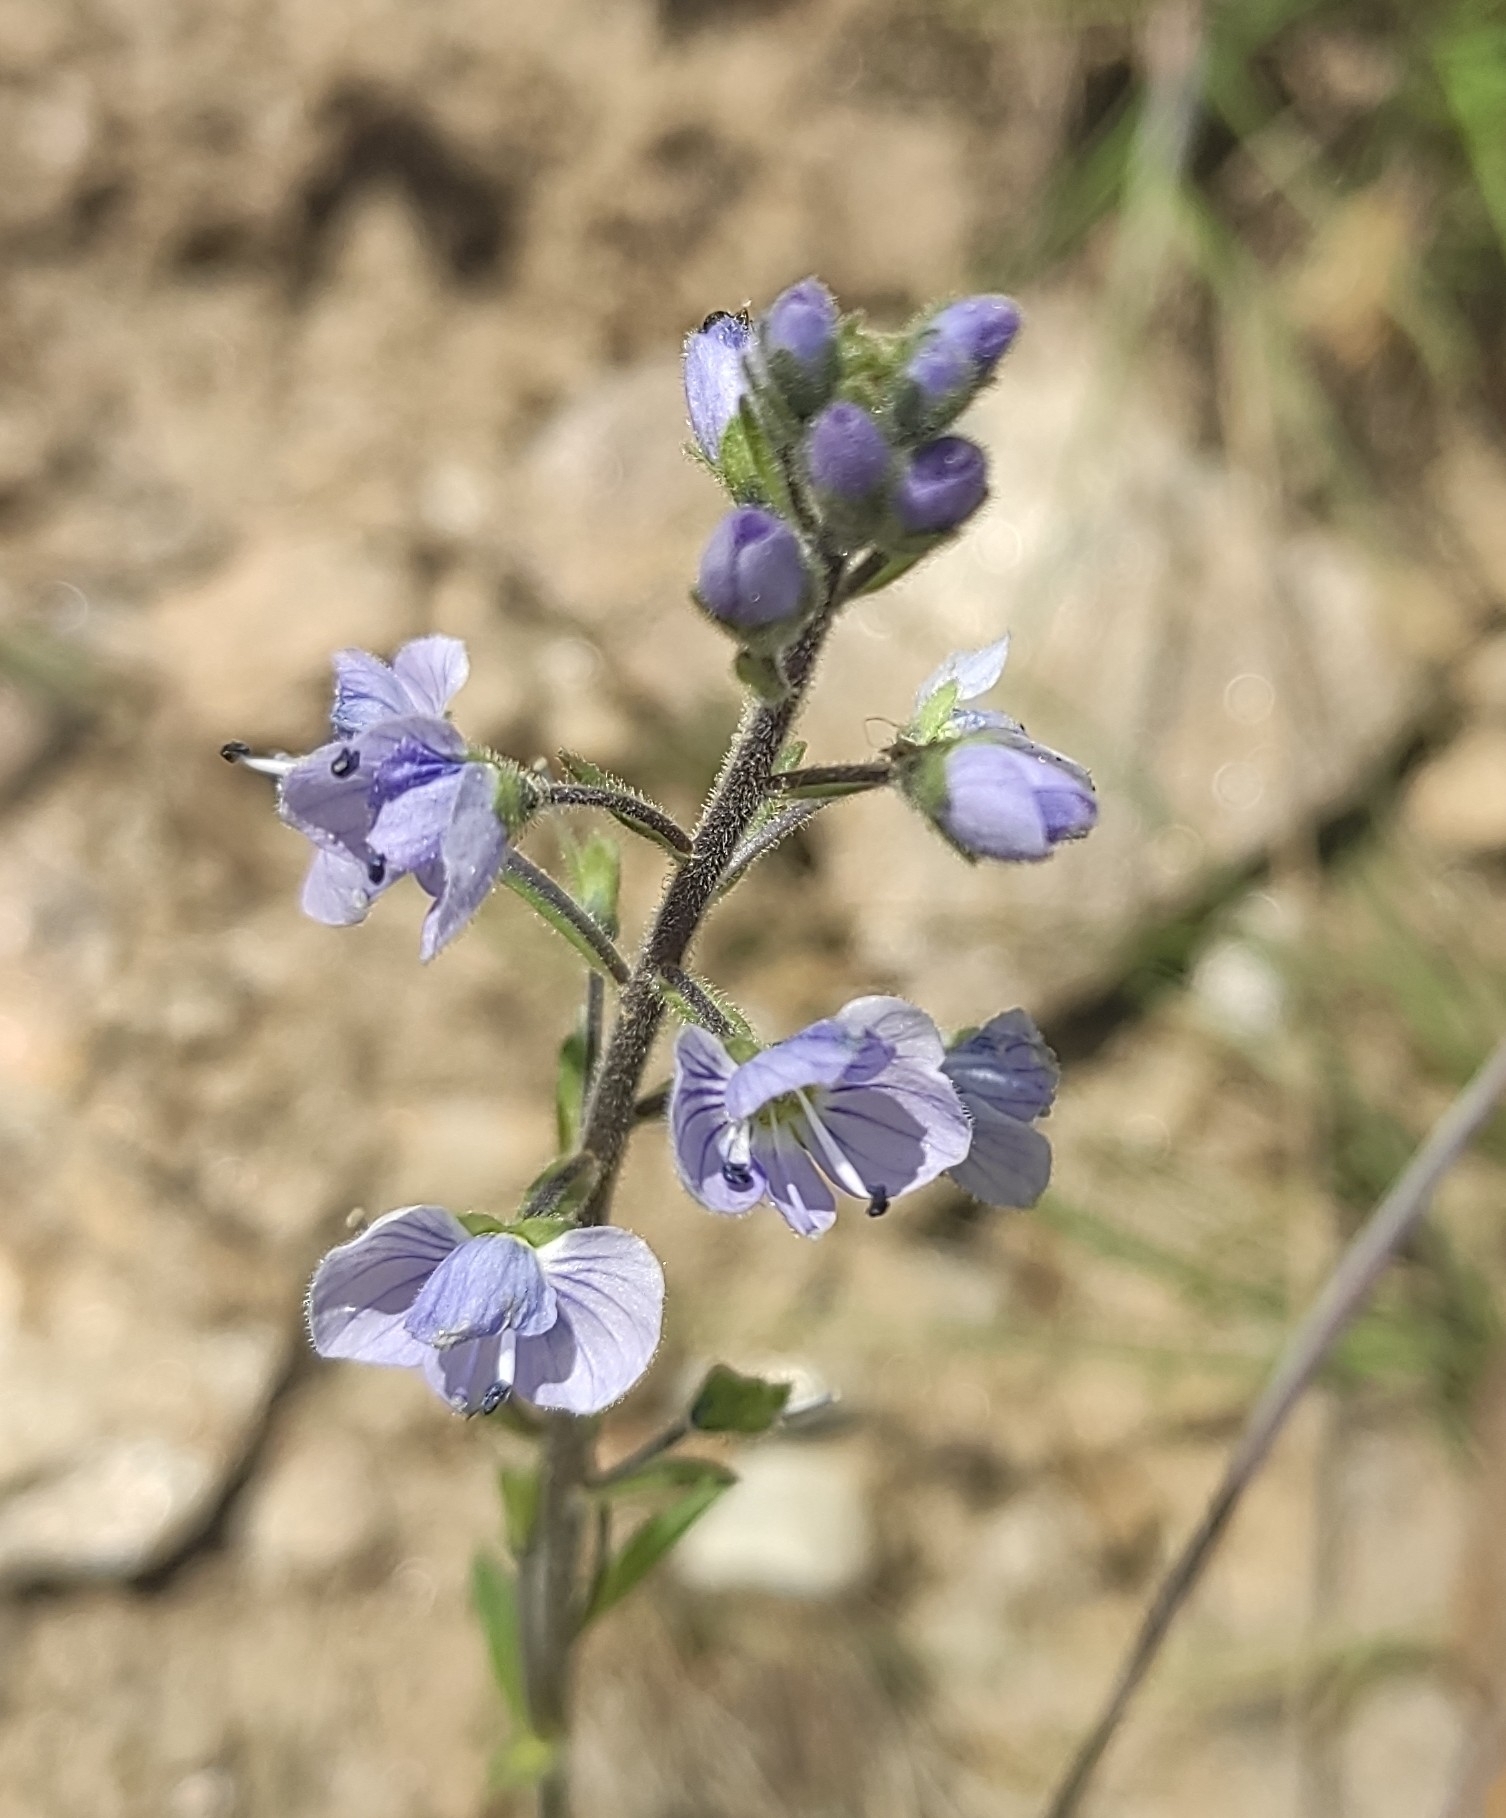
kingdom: Plantae
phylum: Tracheophyta
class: Magnoliopsida
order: Lamiales
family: Plantaginaceae
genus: Veronica
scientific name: Veronica gentianoides
